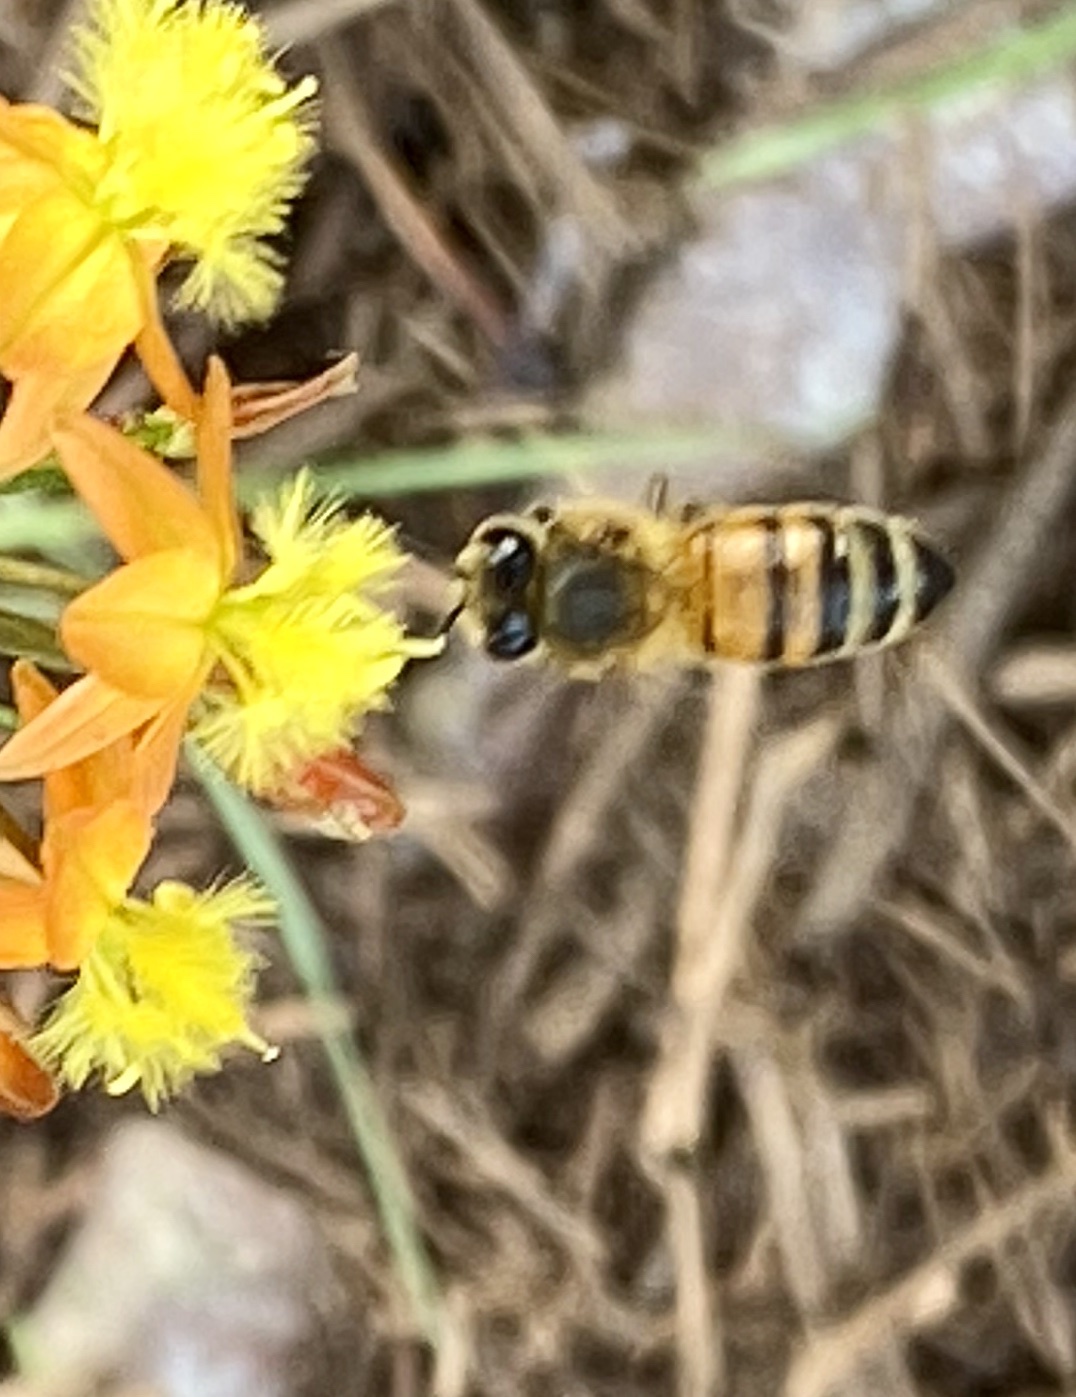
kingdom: Animalia
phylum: Arthropoda
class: Insecta
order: Hymenoptera
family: Apidae
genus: Apis
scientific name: Apis mellifera
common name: Honey bee
